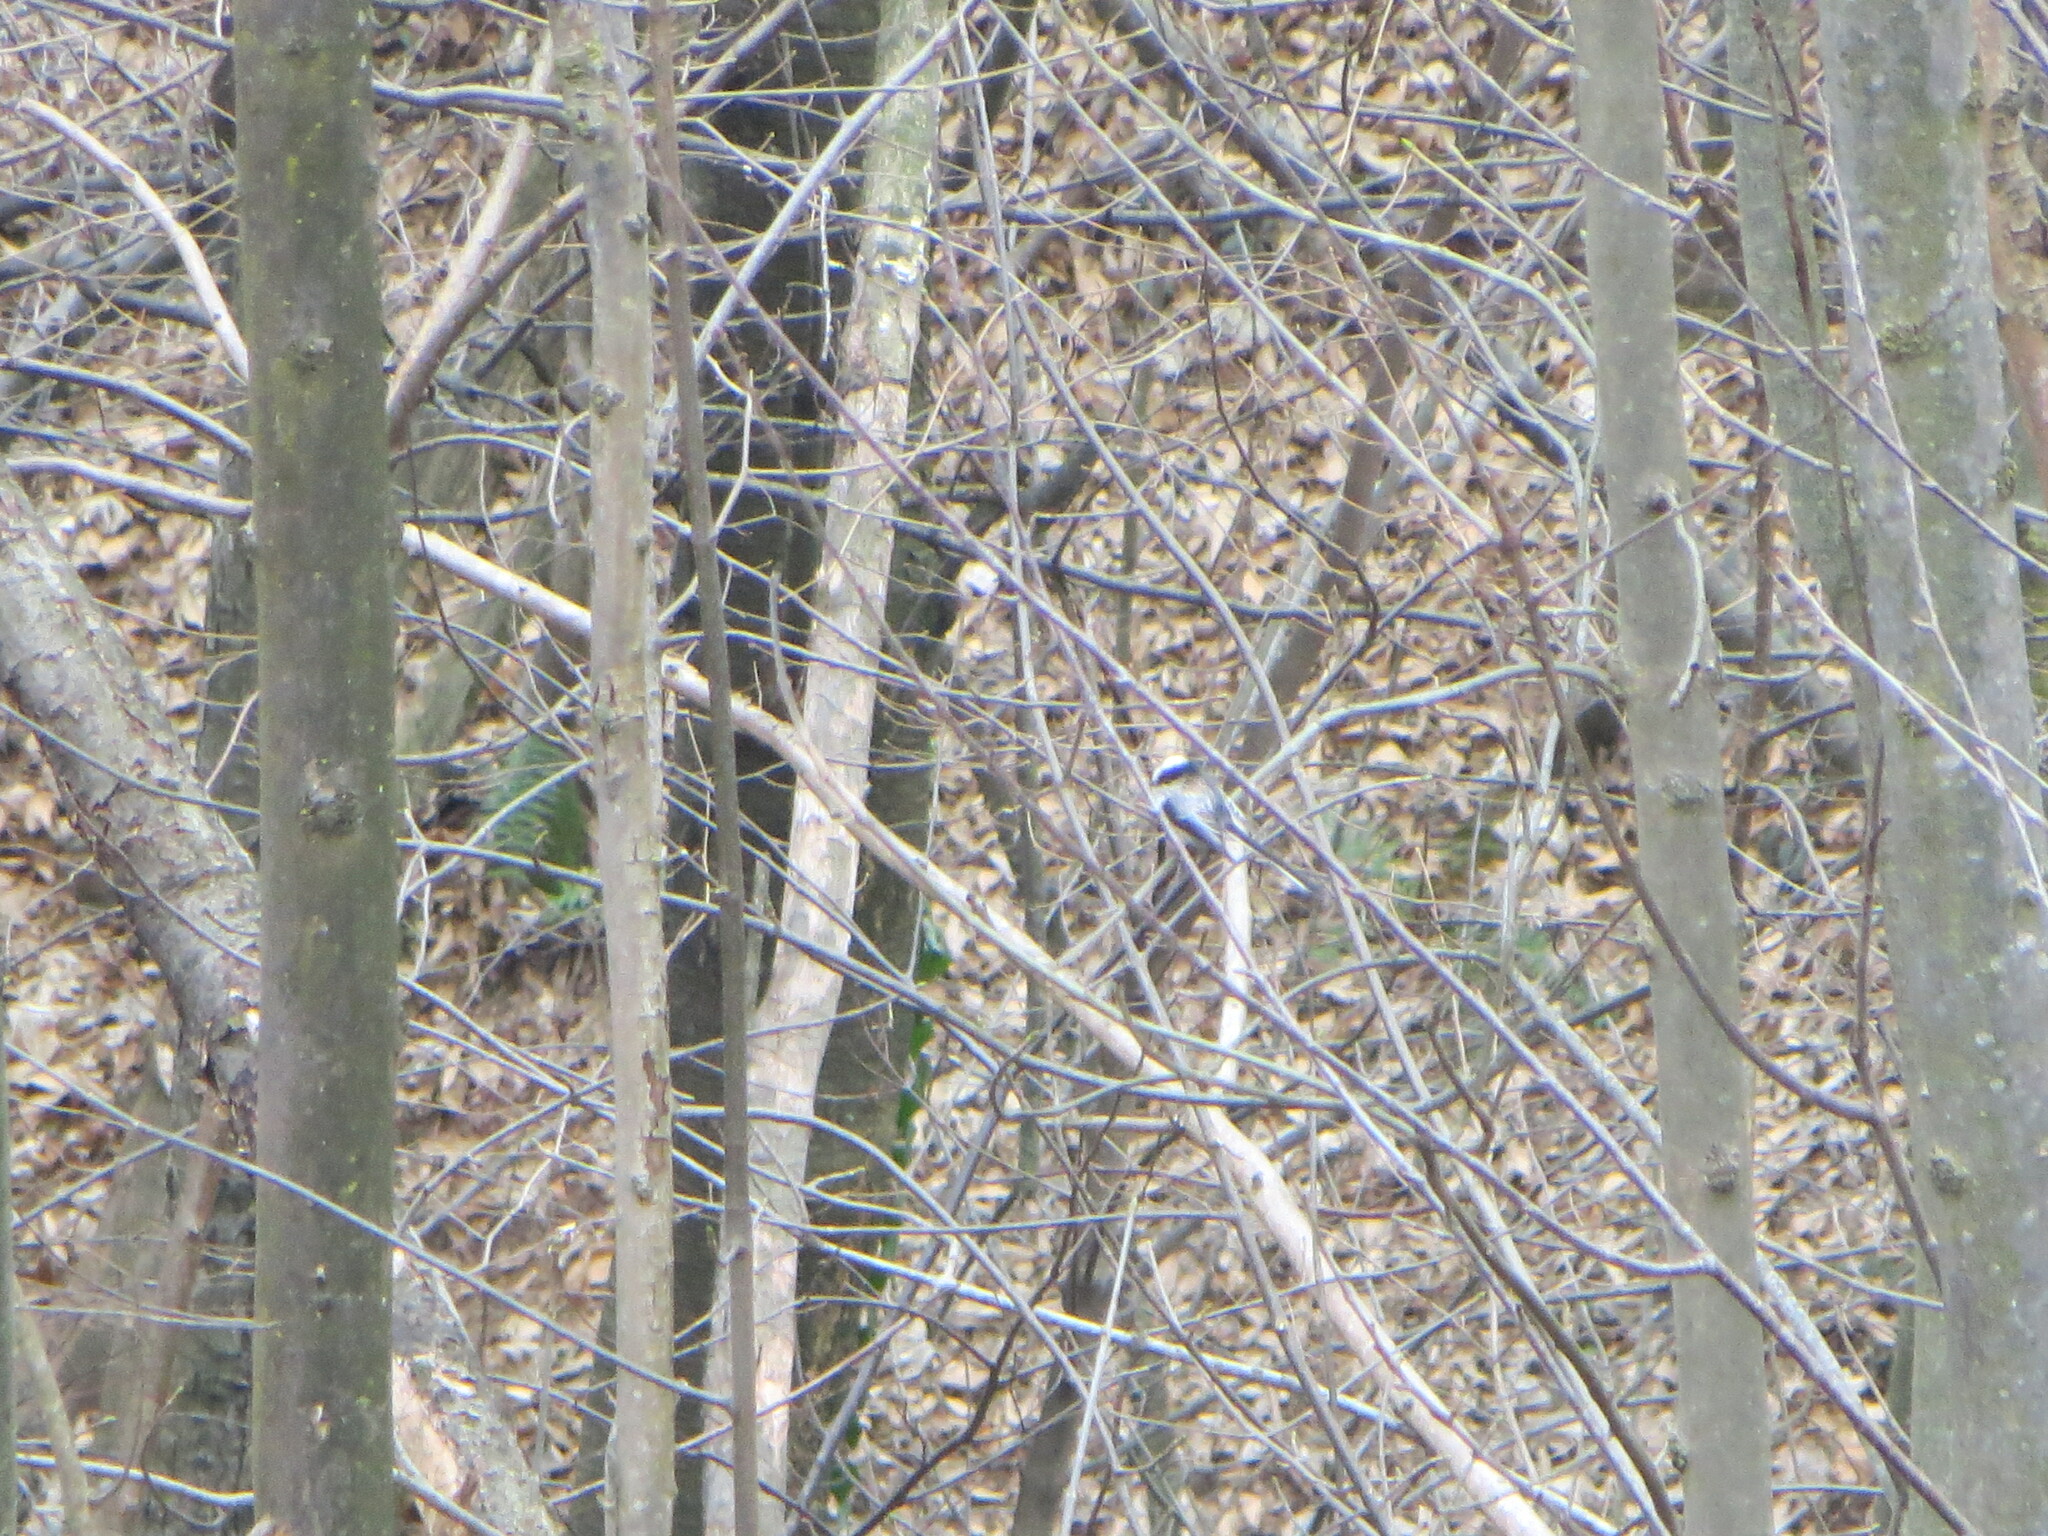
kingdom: Animalia
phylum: Chordata
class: Aves
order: Passeriformes
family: Aegithalidae
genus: Aegithalos
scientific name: Aegithalos caudatus
